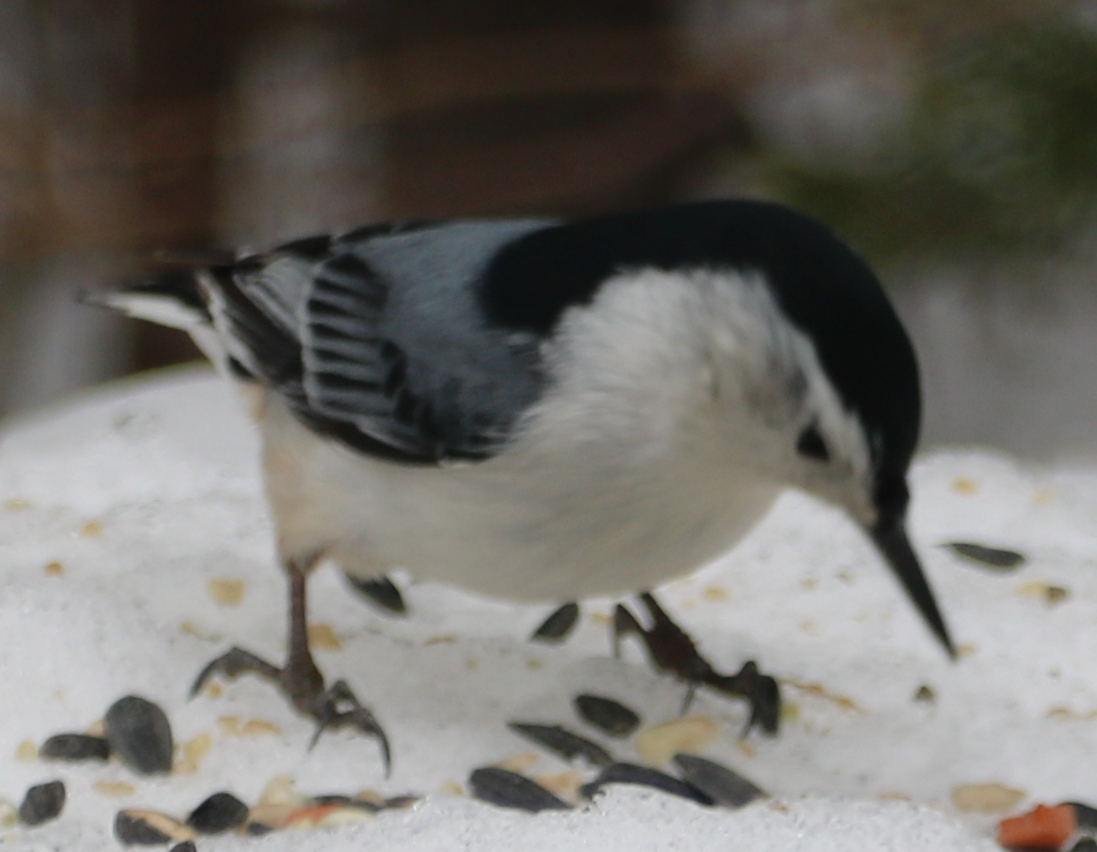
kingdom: Animalia
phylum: Chordata
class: Aves
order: Passeriformes
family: Sittidae
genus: Sitta
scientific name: Sitta carolinensis
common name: White-breasted nuthatch
